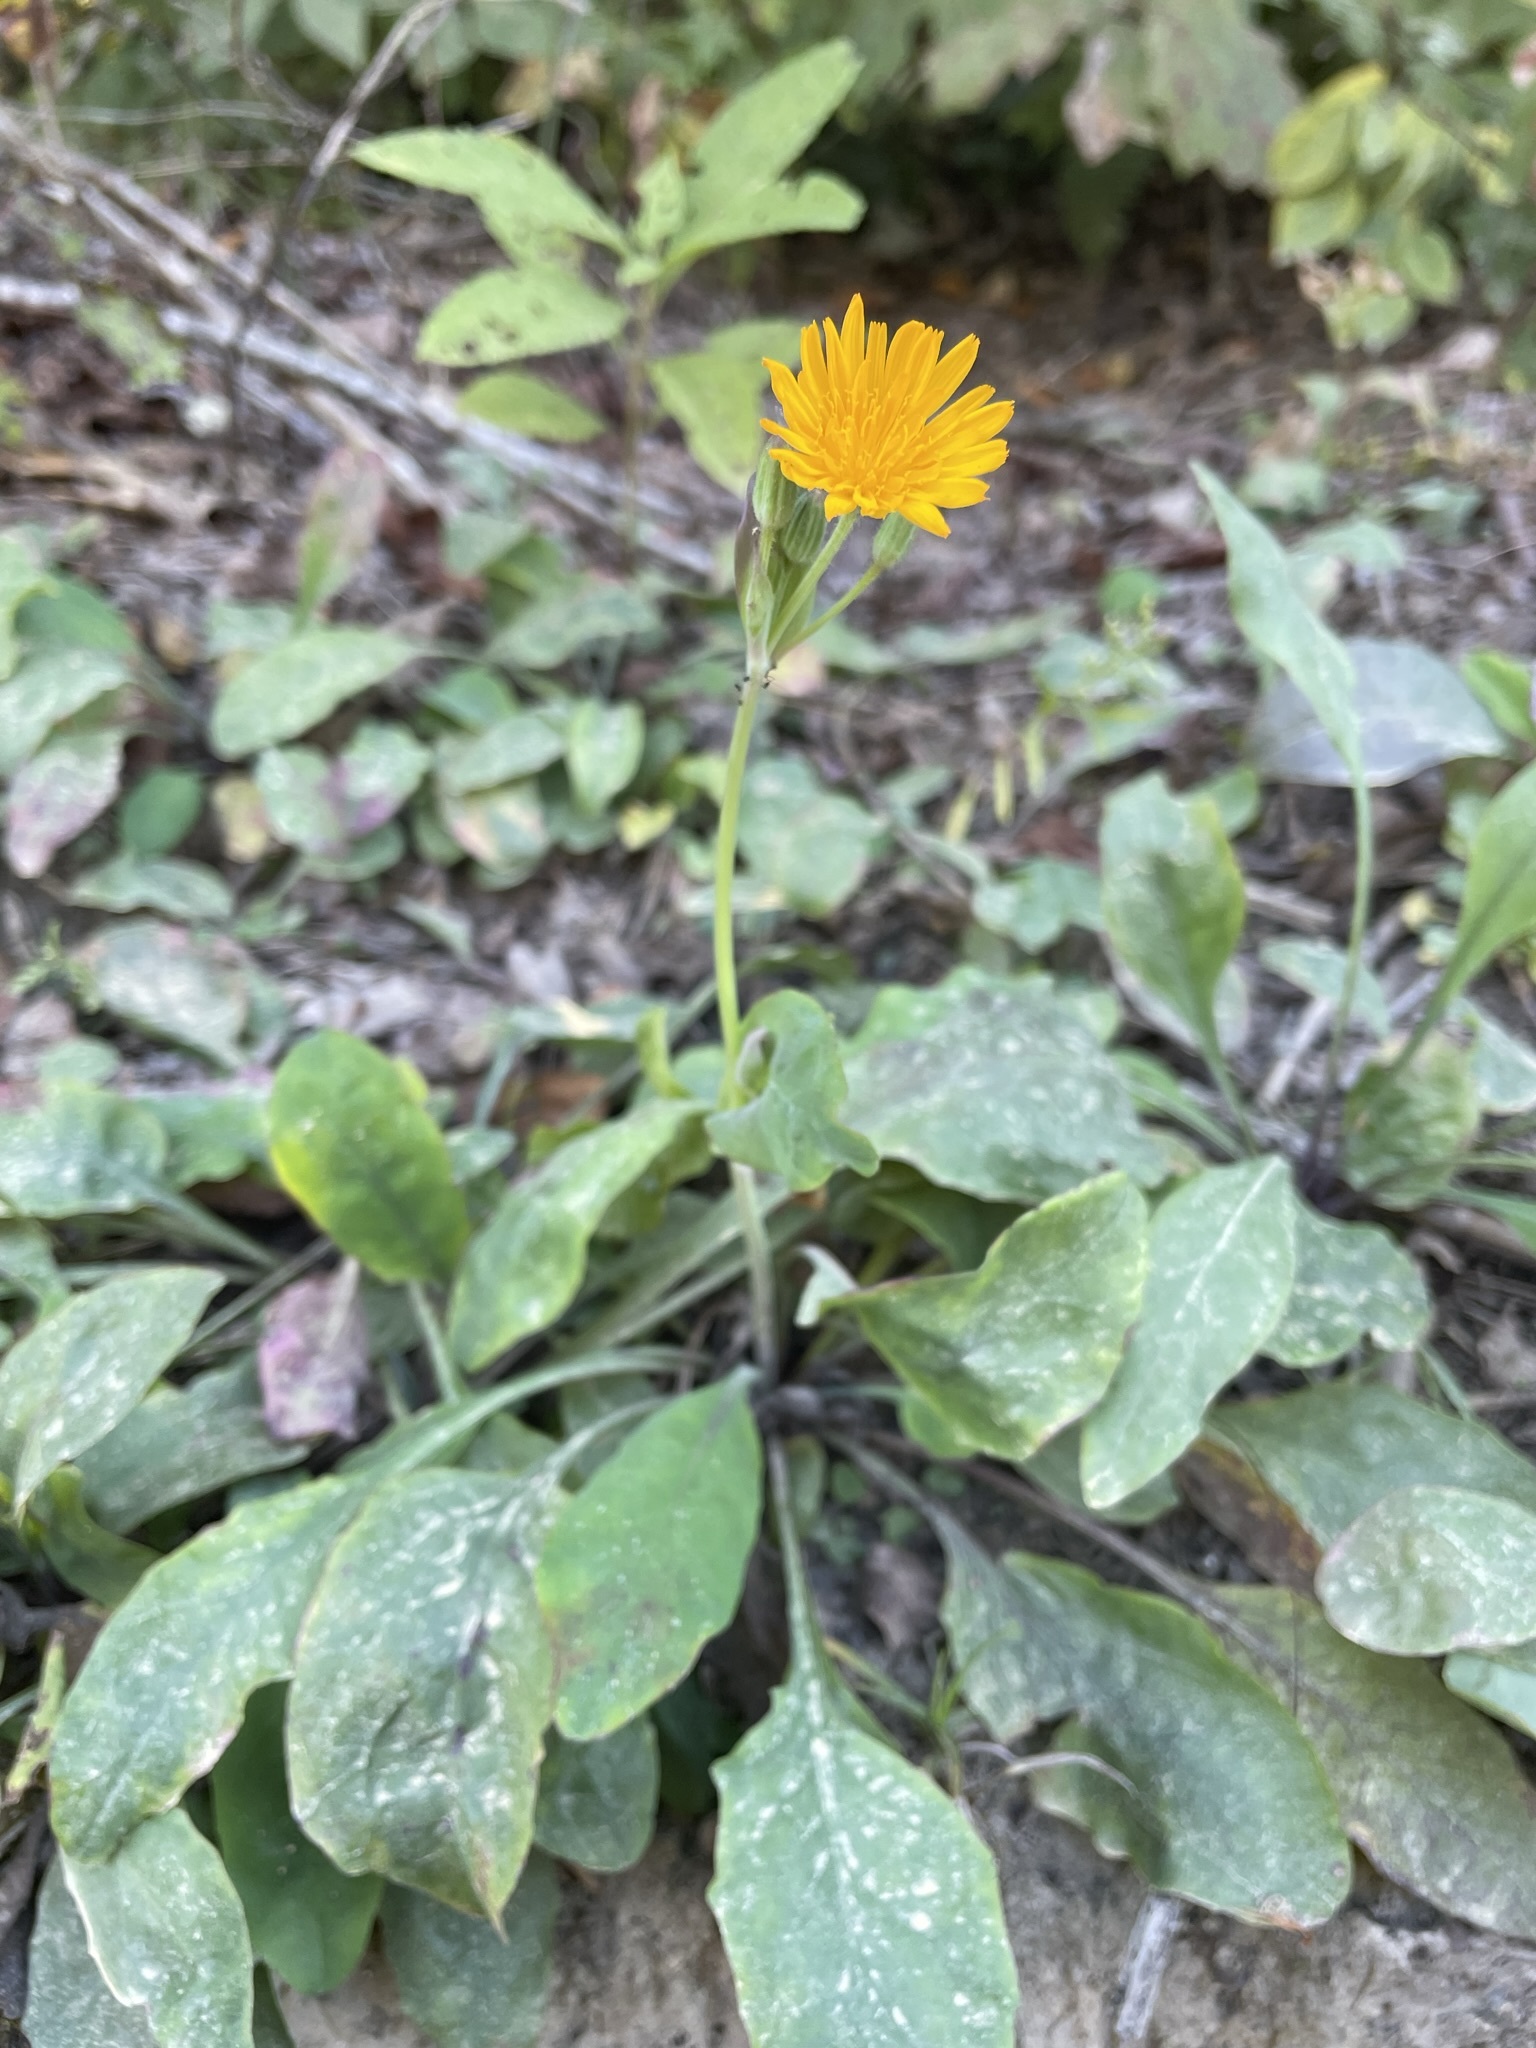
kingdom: Plantae
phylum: Tracheophyta
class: Magnoliopsida
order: Asterales
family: Asteraceae
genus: Krigia
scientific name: Krigia biflora
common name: Orange dwarf-dandelion
